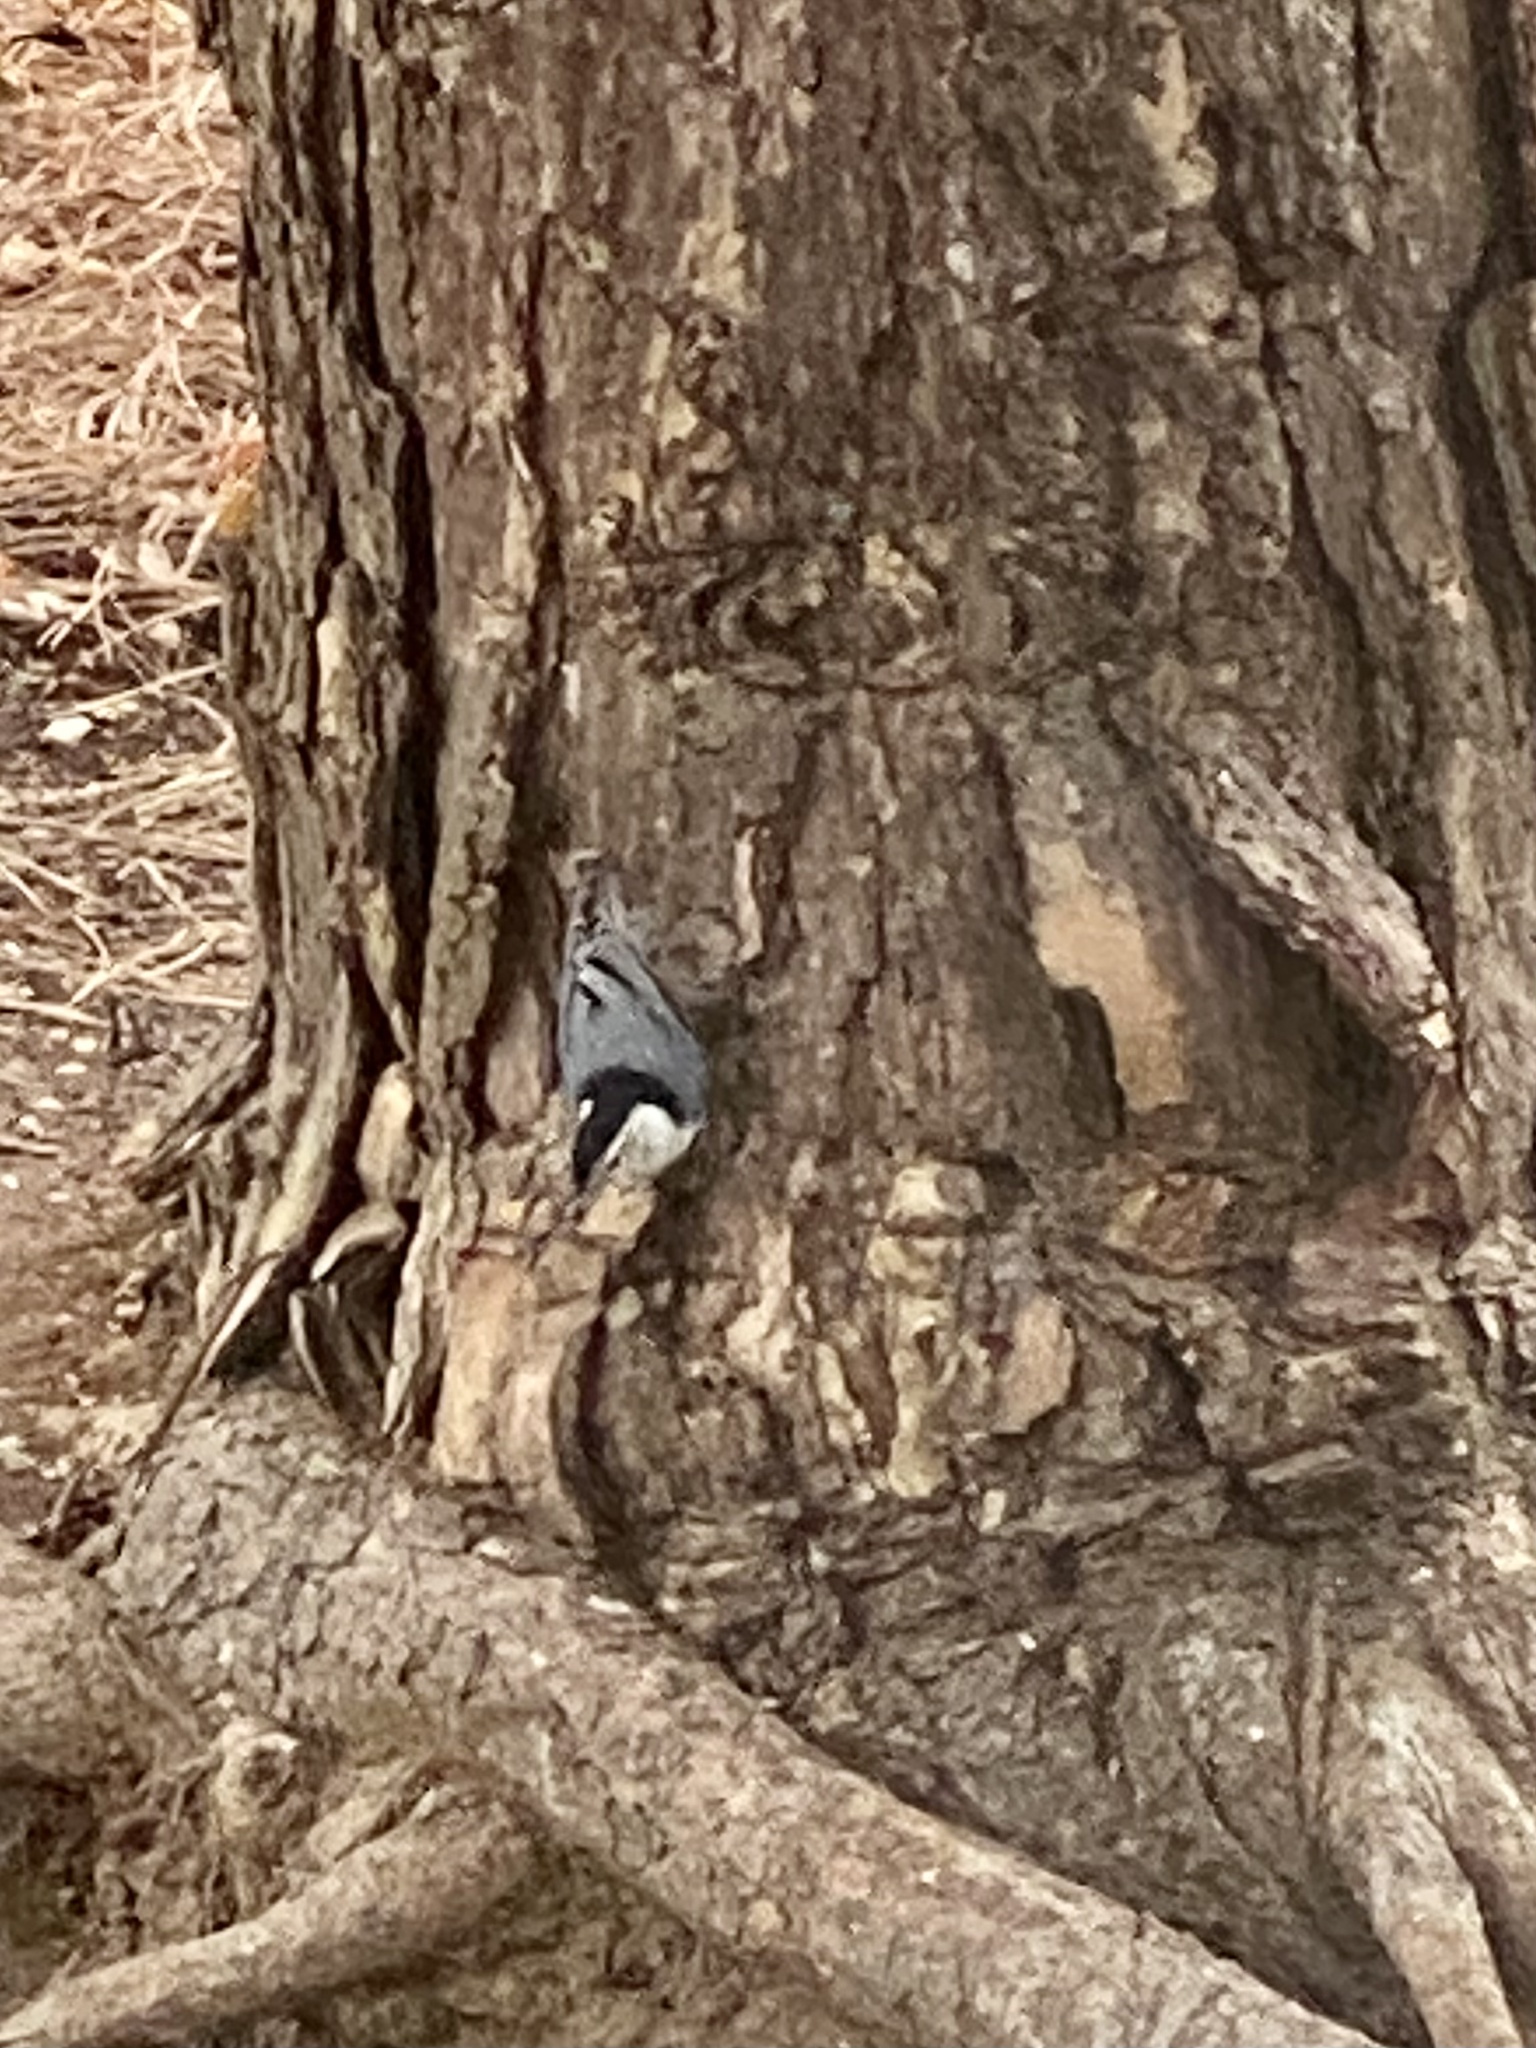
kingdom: Animalia
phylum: Chordata
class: Aves
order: Passeriformes
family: Sittidae
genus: Sitta
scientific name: Sitta carolinensis
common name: White-breasted nuthatch
